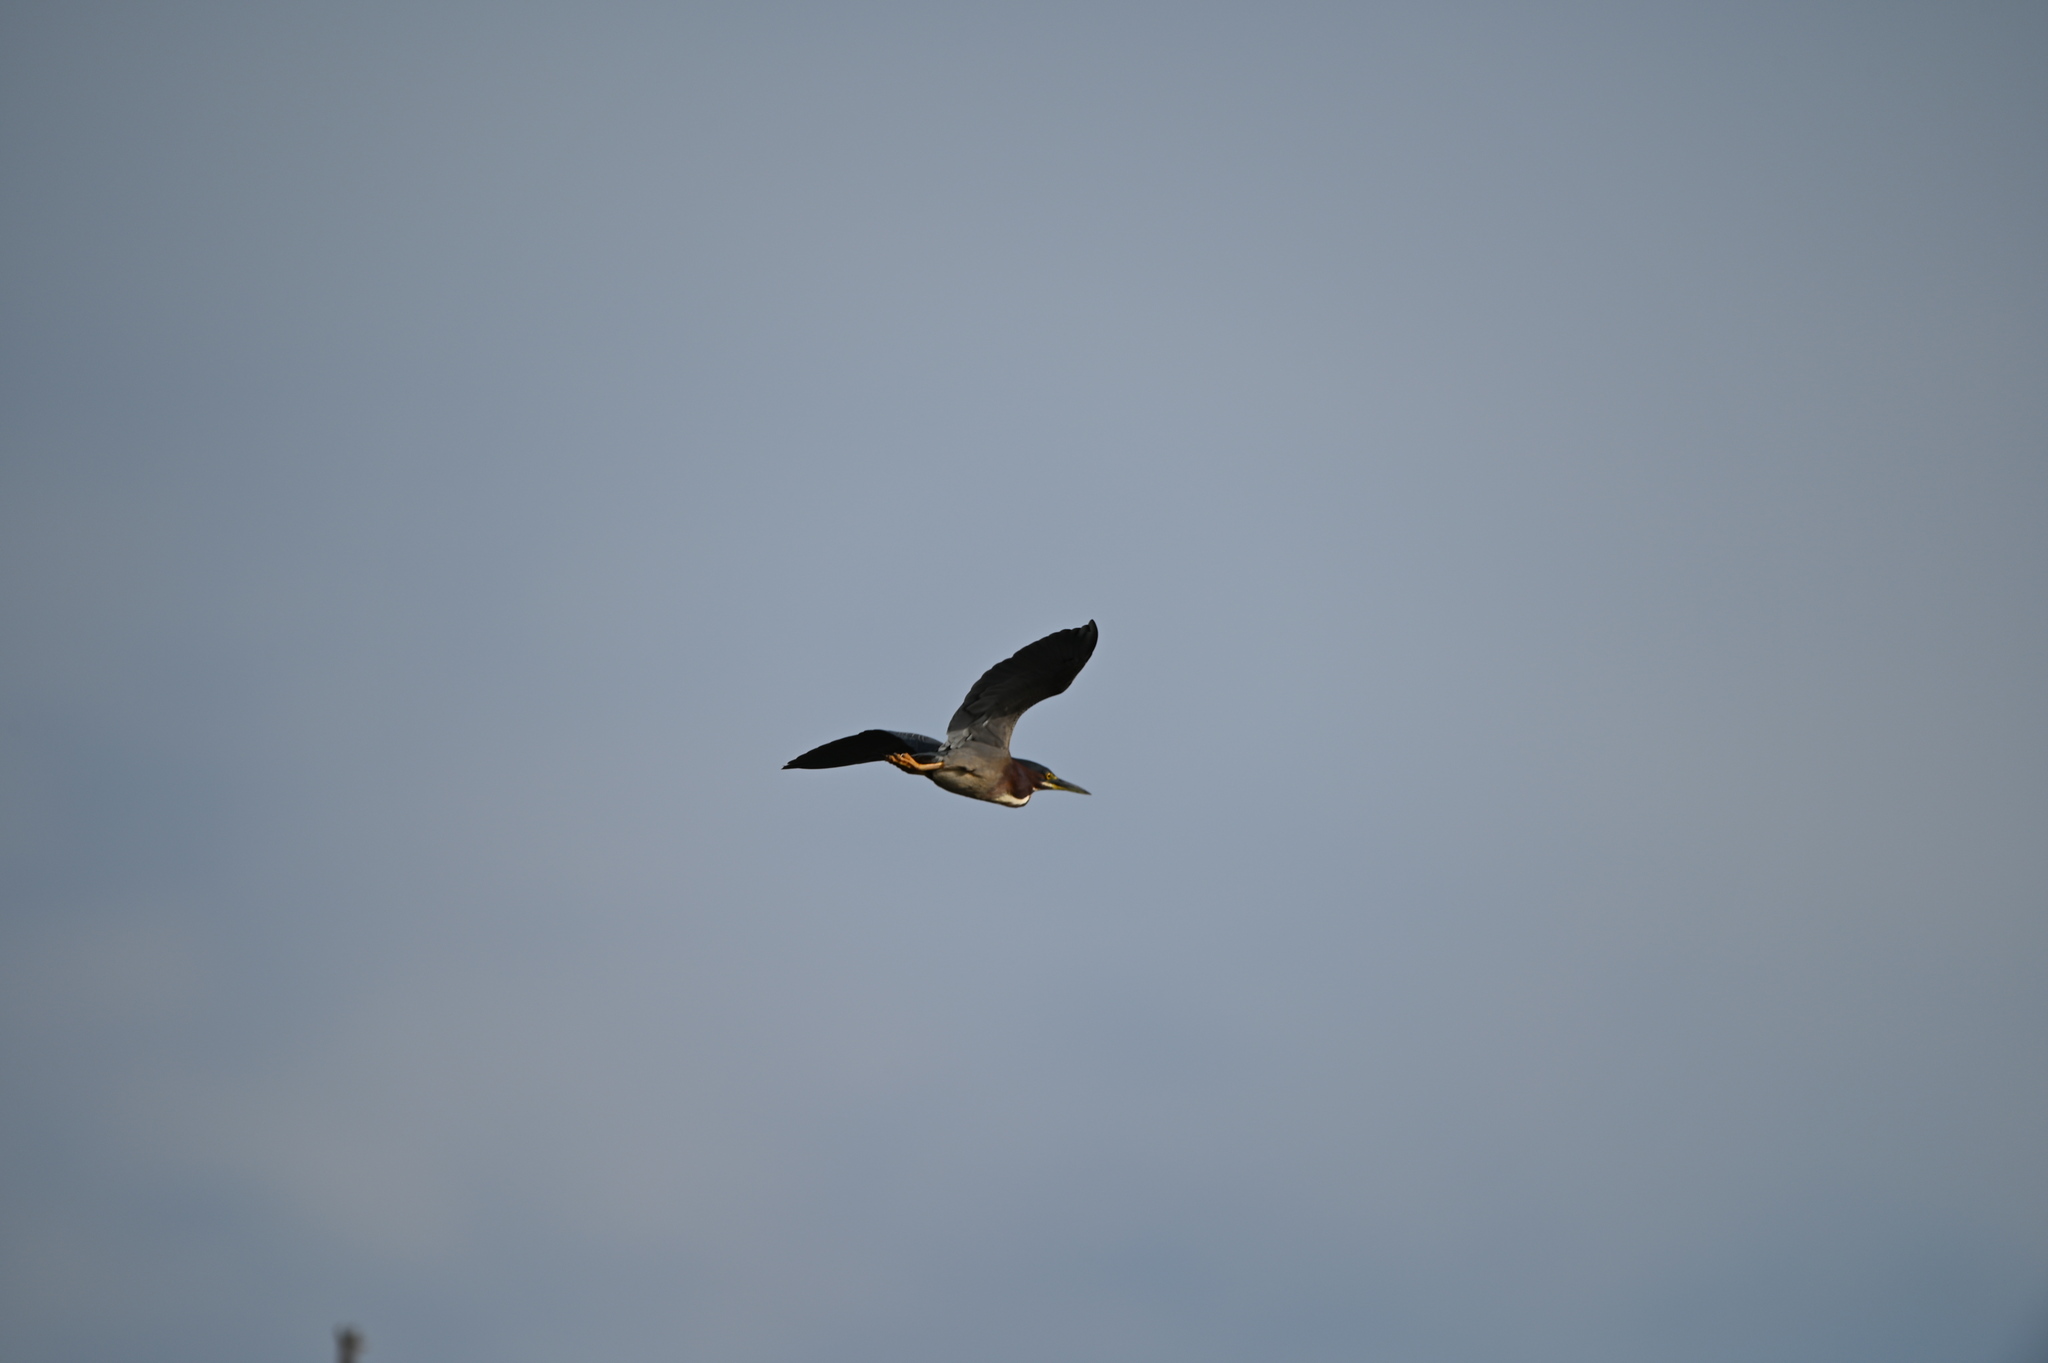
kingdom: Animalia
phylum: Chordata
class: Aves
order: Pelecaniformes
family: Ardeidae
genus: Butorides
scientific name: Butorides virescens
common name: Green heron
